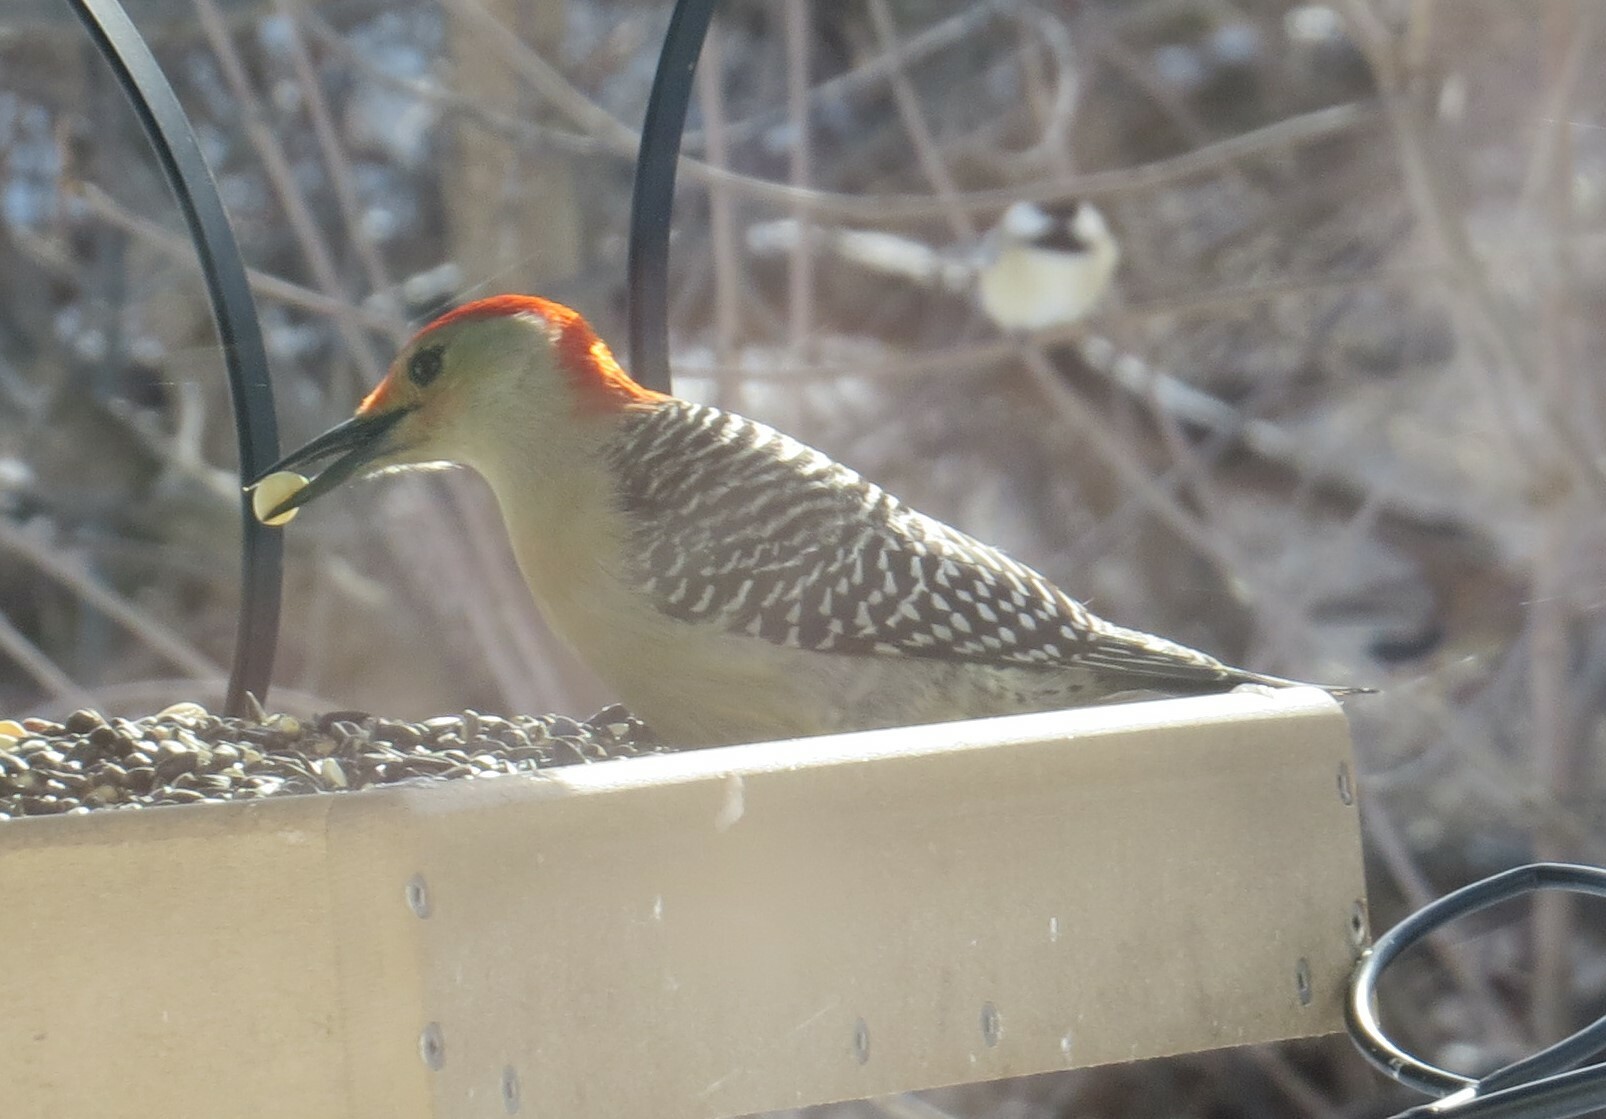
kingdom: Animalia
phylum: Chordata
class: Aves
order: Piciformes
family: Picidae
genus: Melanerpes
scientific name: Melanerpes carolinus
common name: Red-bellied woodpecker
